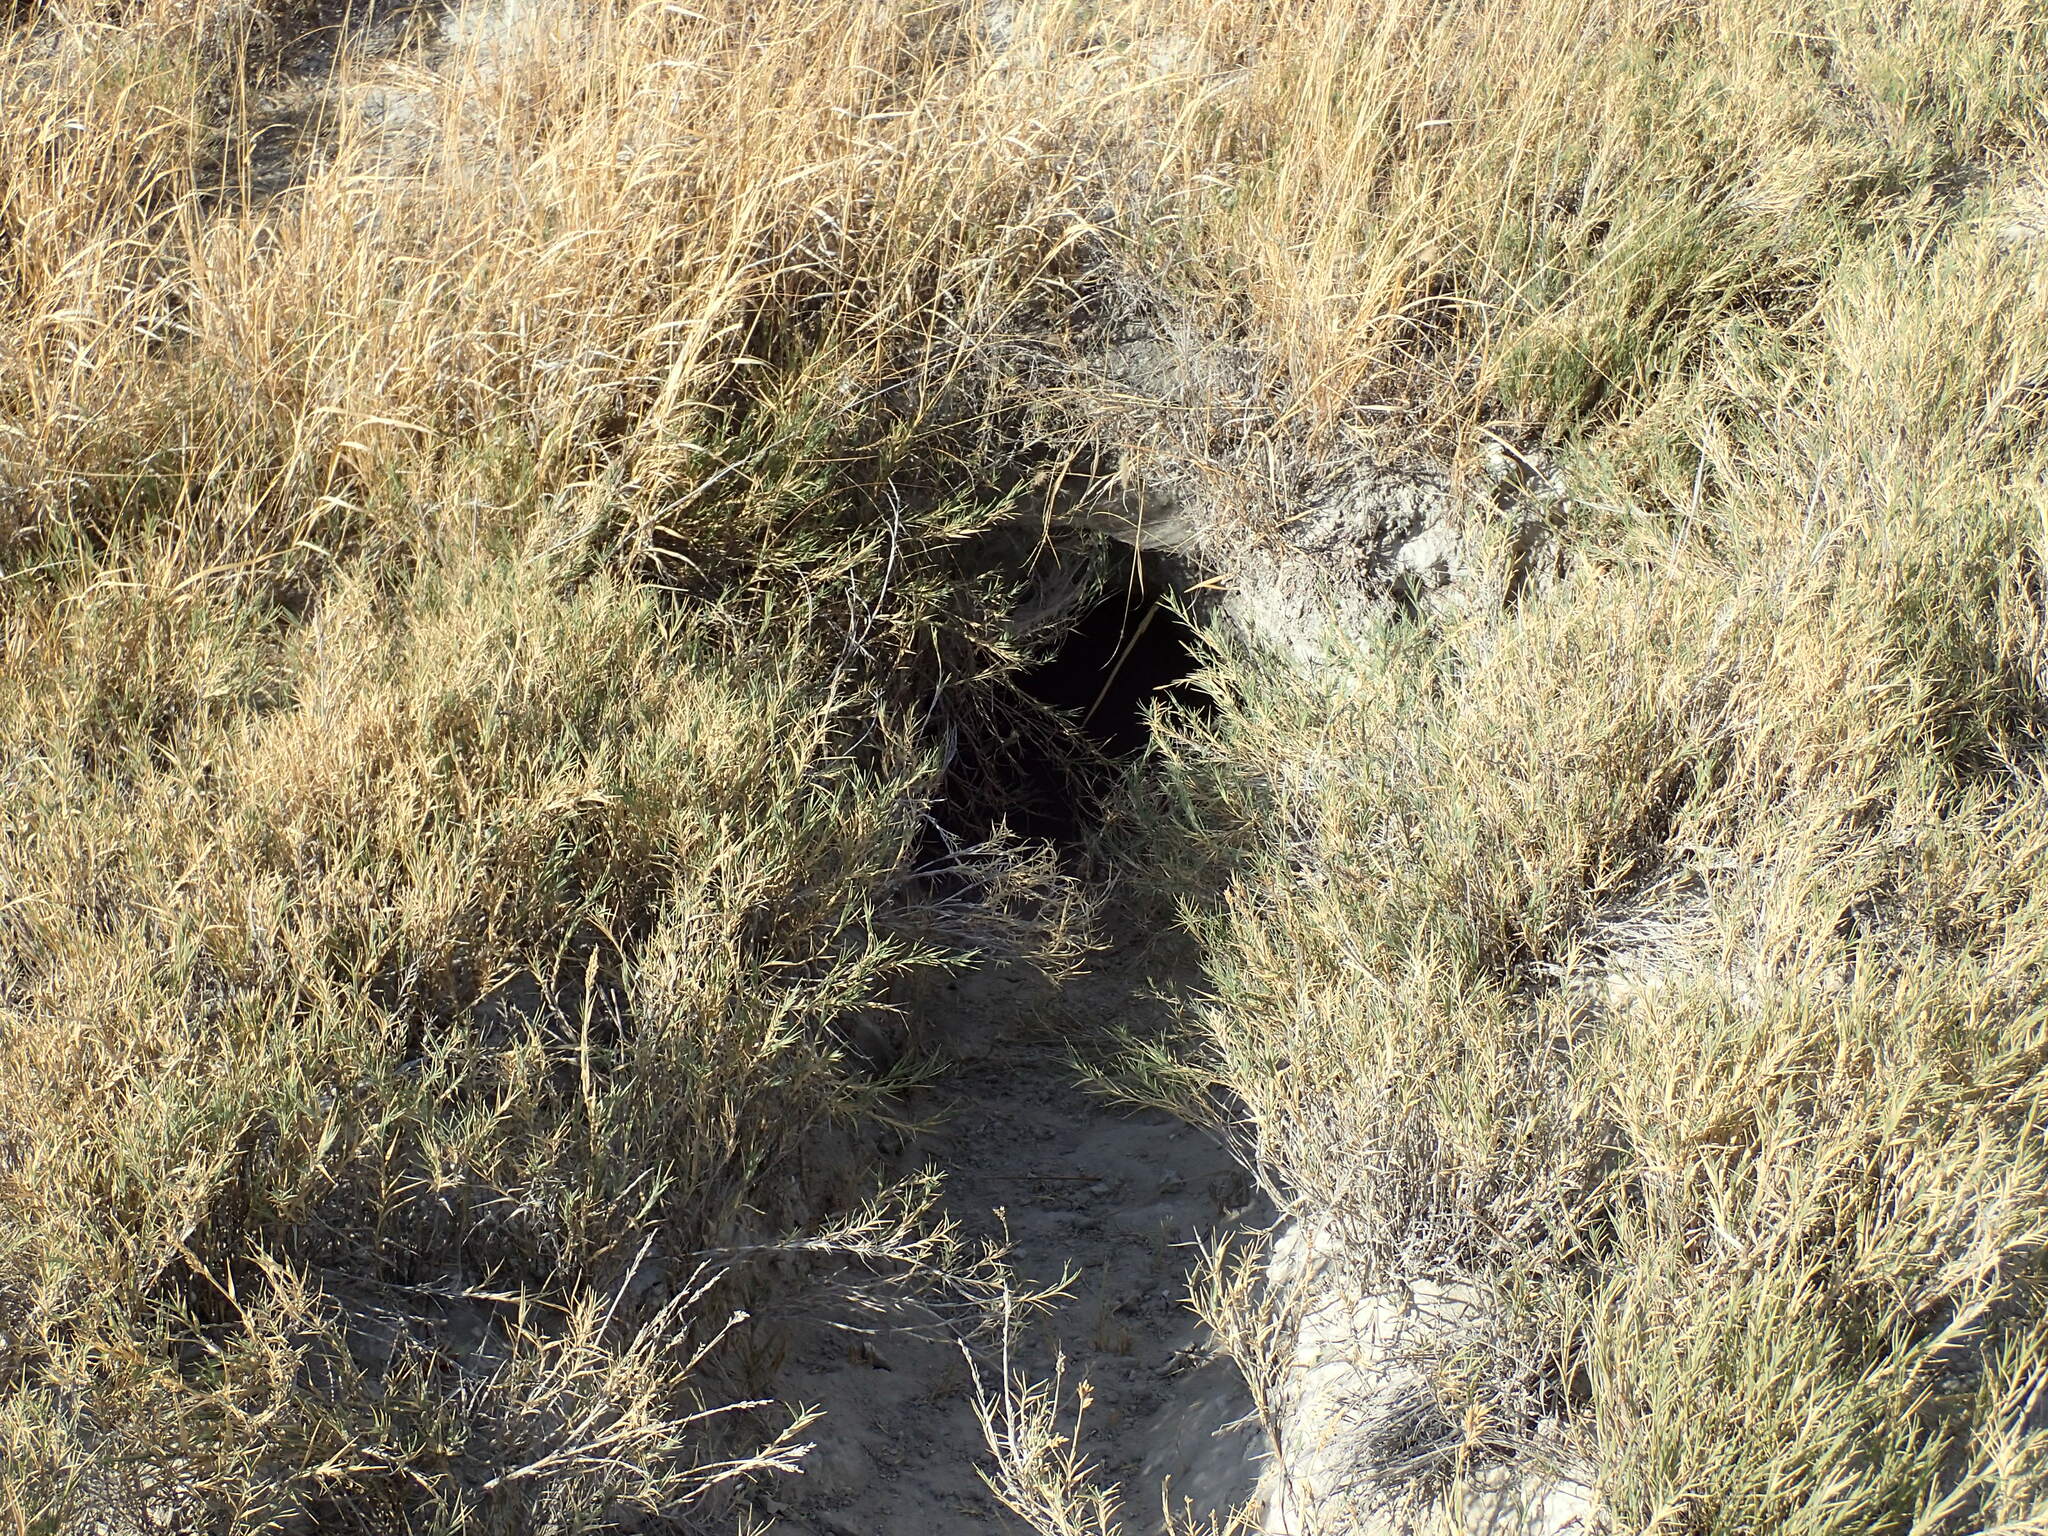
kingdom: Animalia
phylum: Chordata
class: Mammalia
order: Carnivora
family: Hyaenidae
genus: Hyaena
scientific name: Hyaena brunnea
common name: Brown hyena
